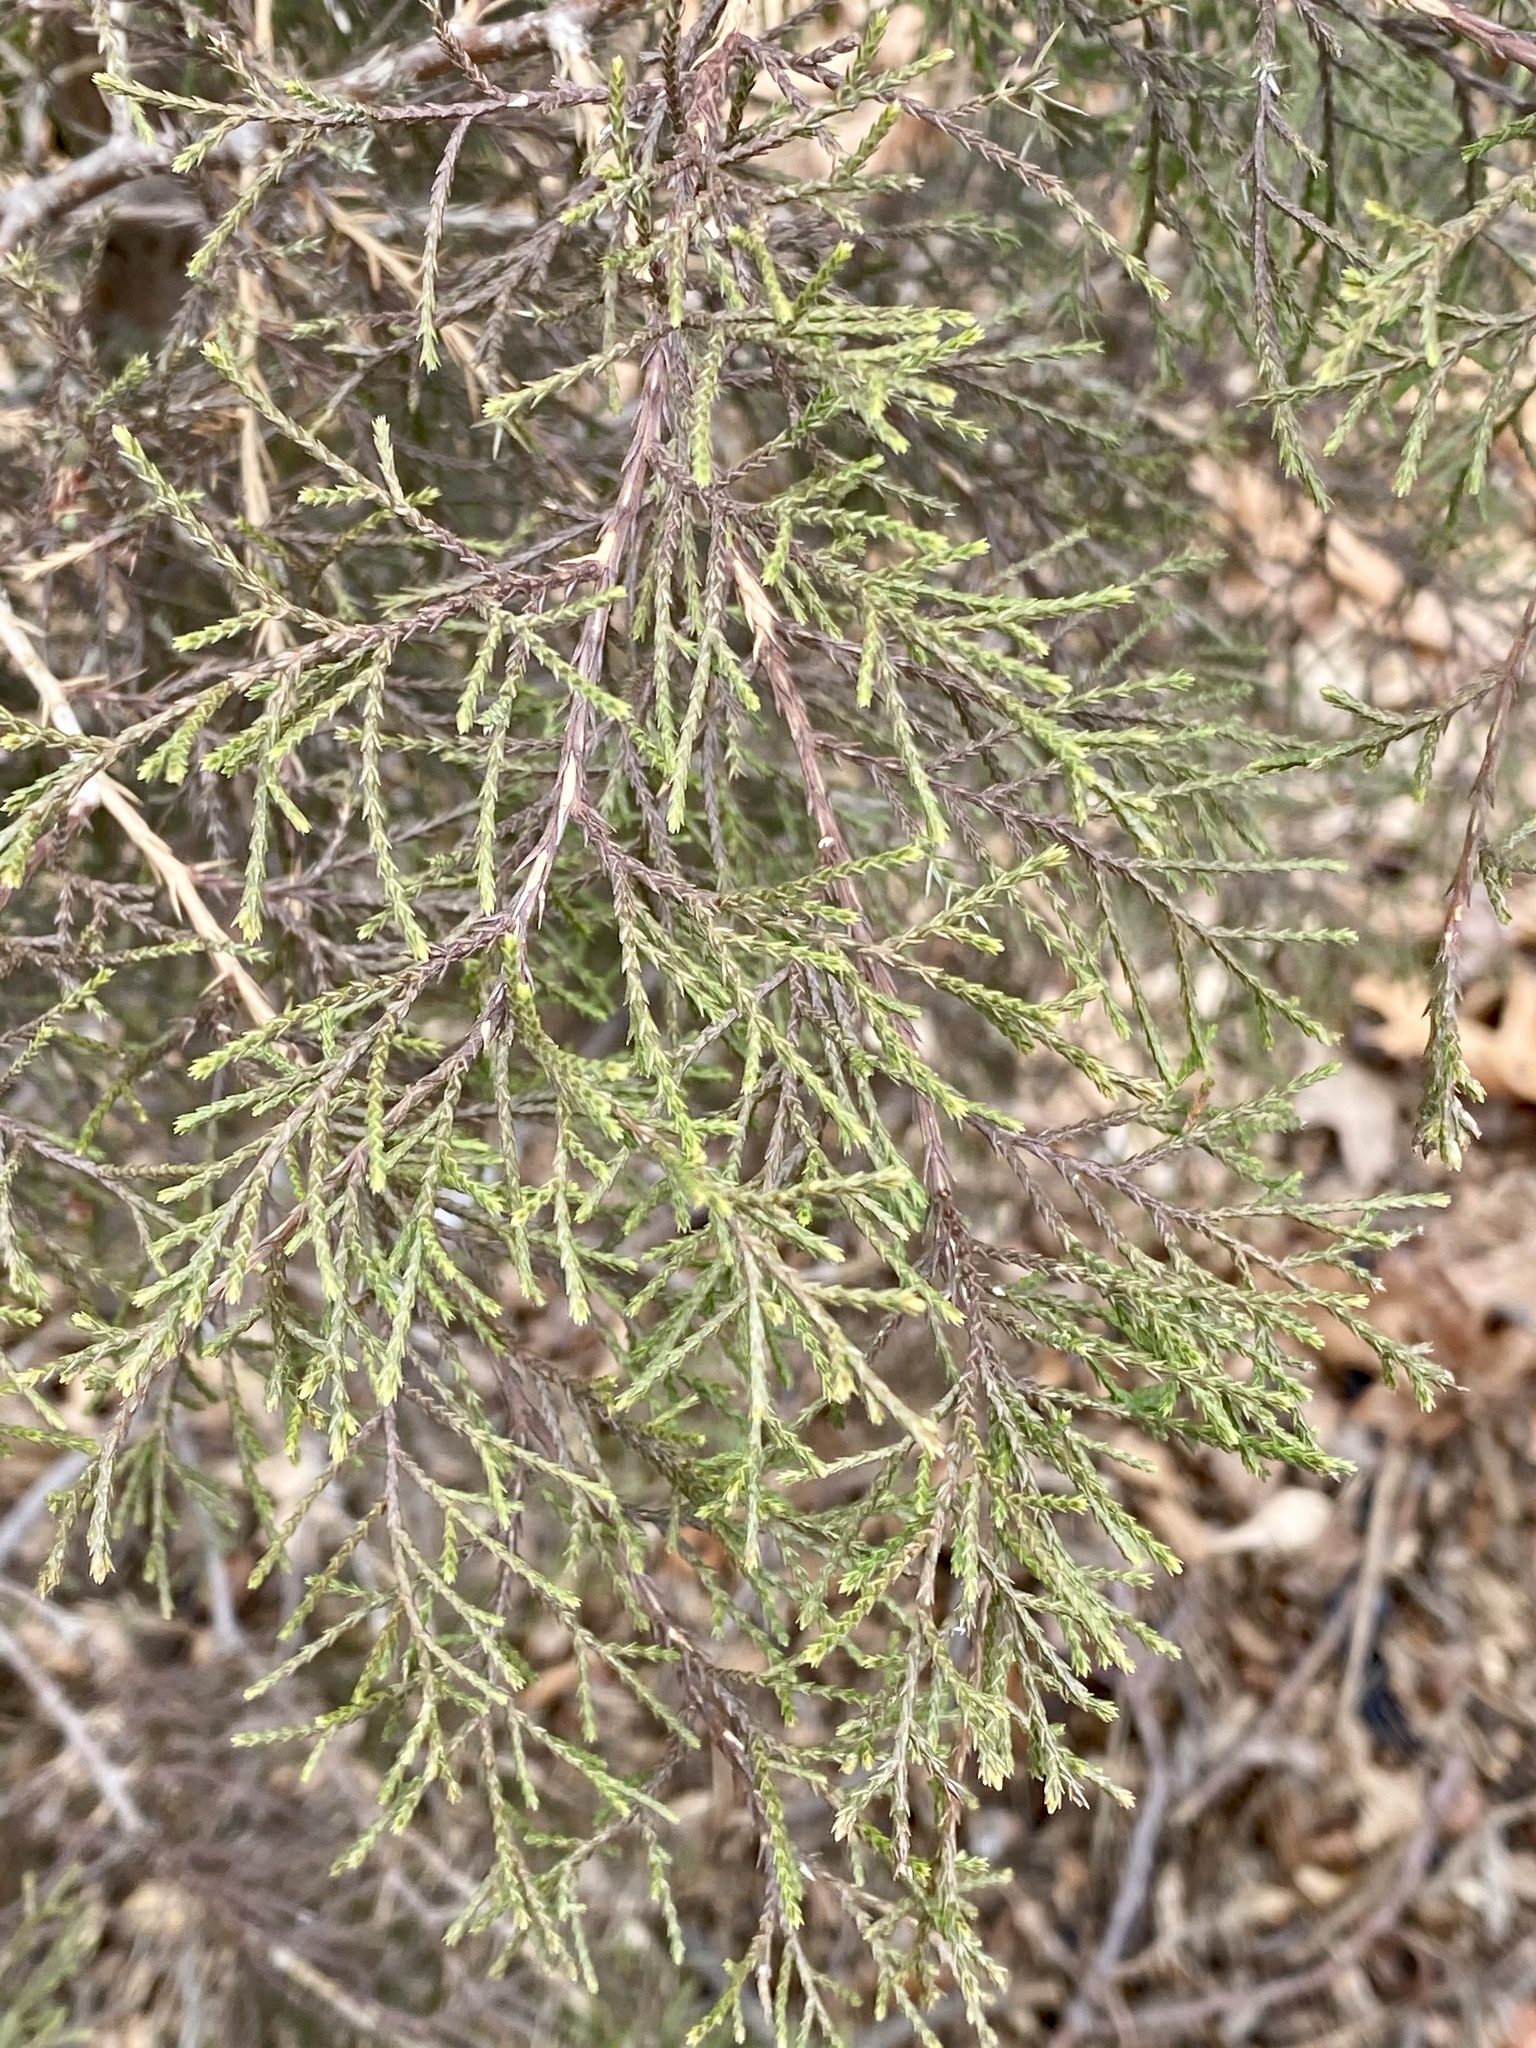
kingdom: Plantae
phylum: Tracheophyta
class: Pinopsida
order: Pinales
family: Cupressaceae
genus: Juniperus
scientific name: Juniperus virginiana
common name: Red juniper
